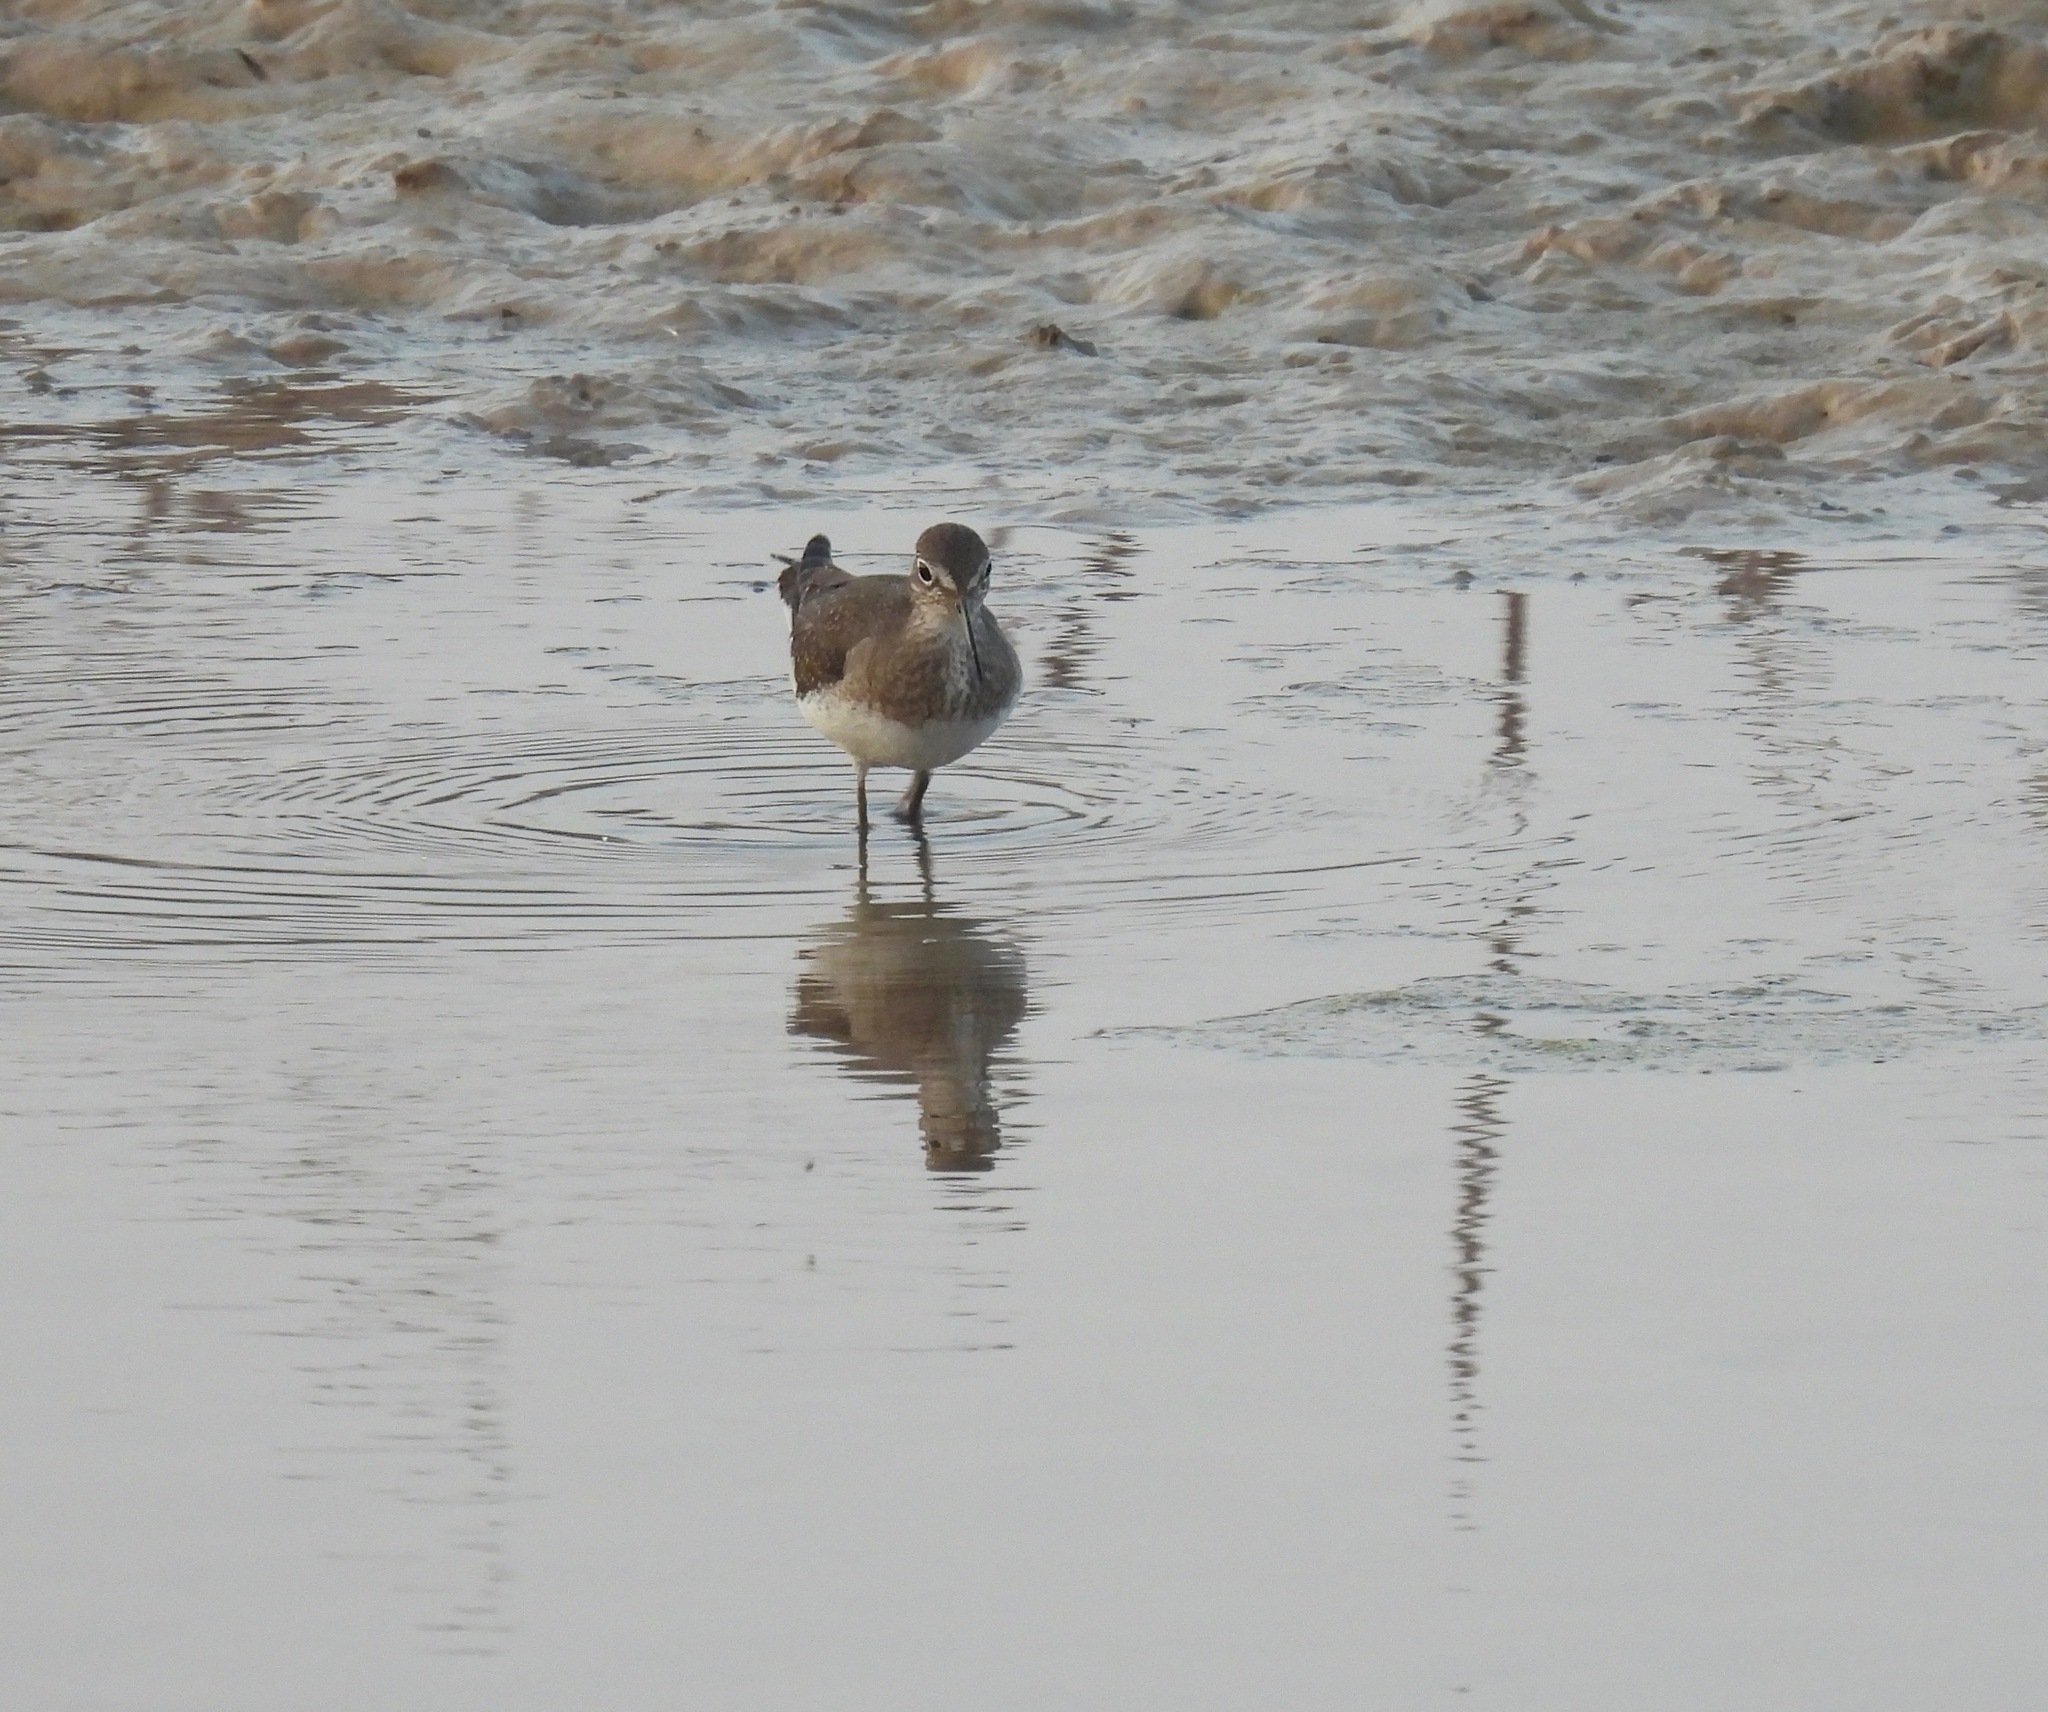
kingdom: Animalia
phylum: Chordata
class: Aves
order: Charadriiformes
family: Scolopacidae
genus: Tringa
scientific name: Tringa solitaria
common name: Solitary sandpiper
